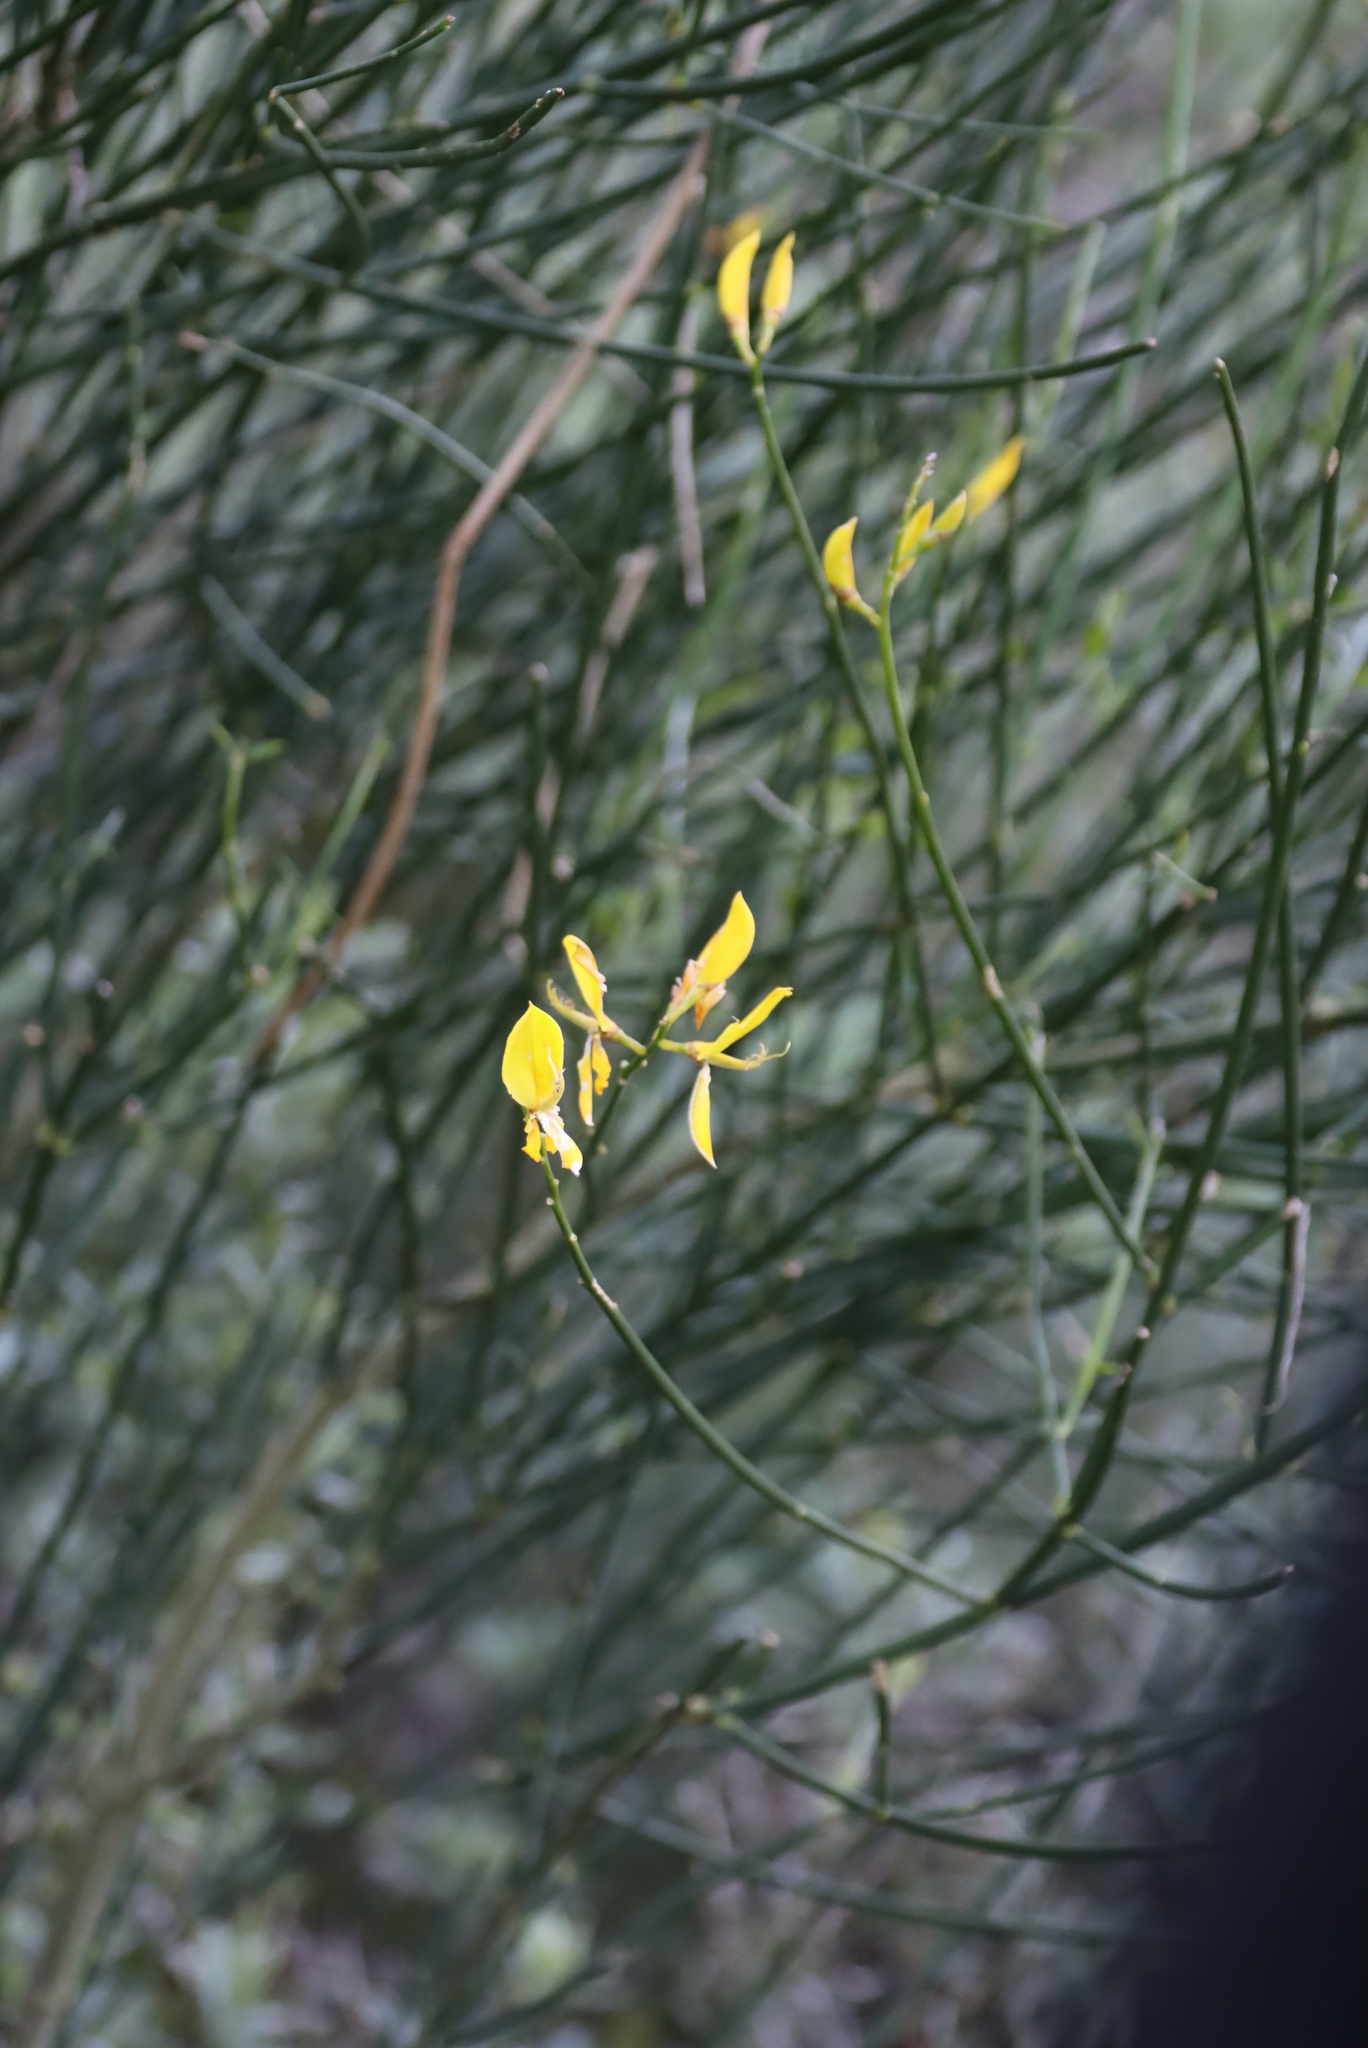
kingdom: Plantae
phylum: Tracheophyta
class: Magnoliopsida
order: Fabales
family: Fabaceae
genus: Spartium
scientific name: Spartium junceum
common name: Spanish broom
